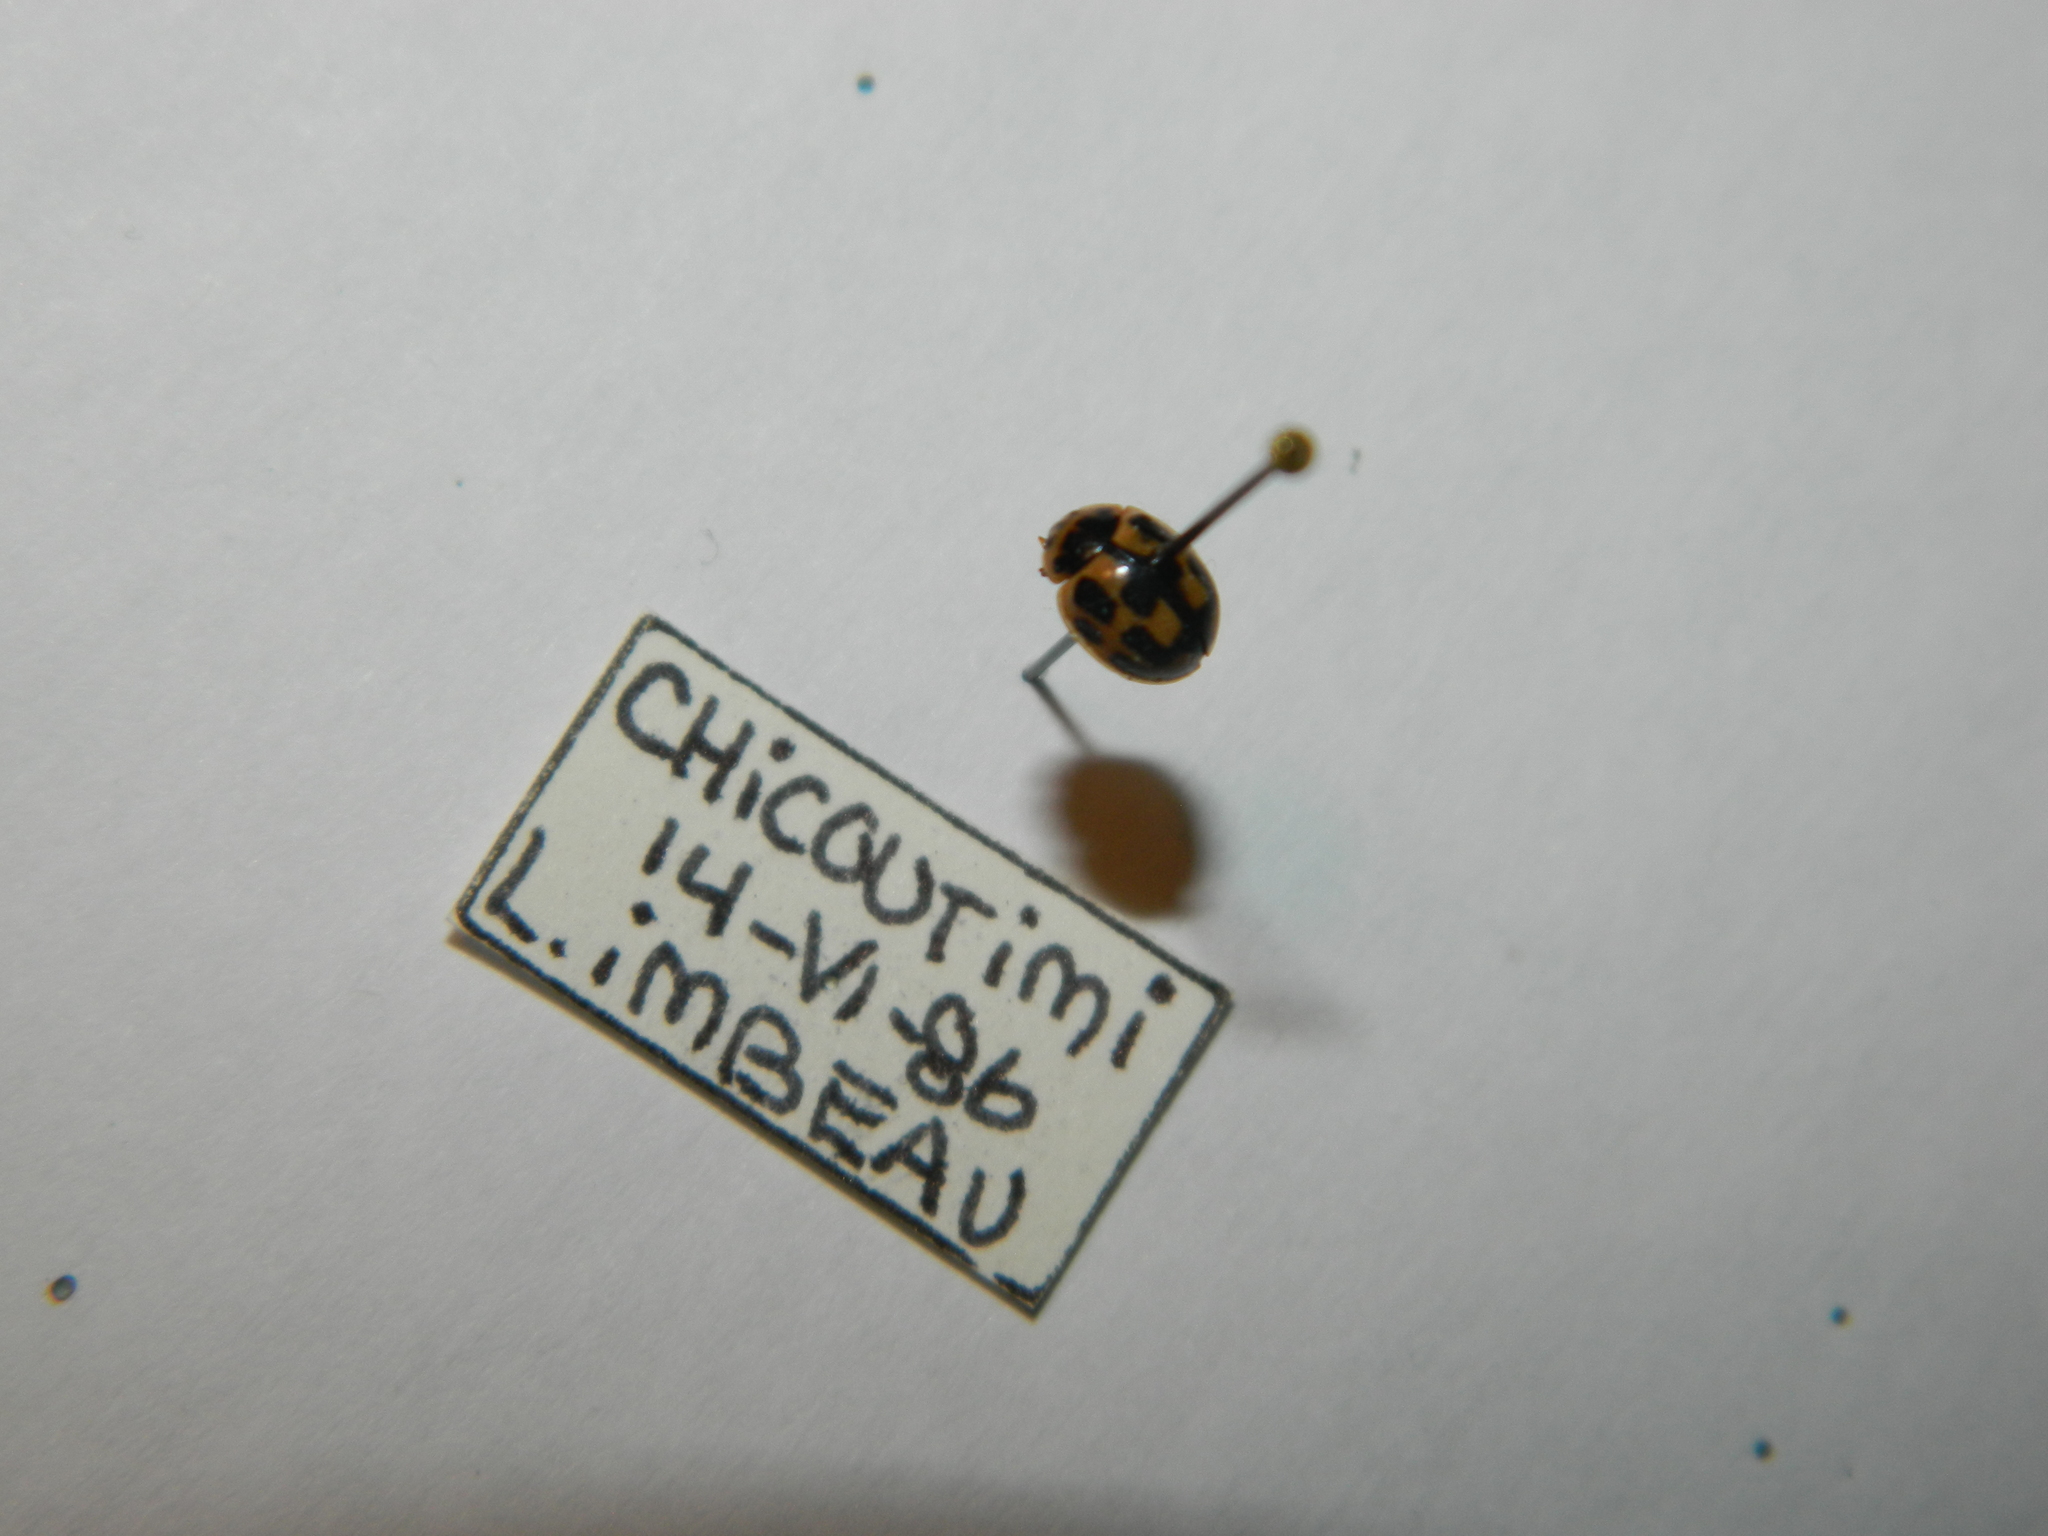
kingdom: Animalia
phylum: Arthropoda
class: Insecta
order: Coleoptera
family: Coccinellidae
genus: Propylaea
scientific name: Propylaea quatuordecimpunctata
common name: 14-spotted ladybird beetle
